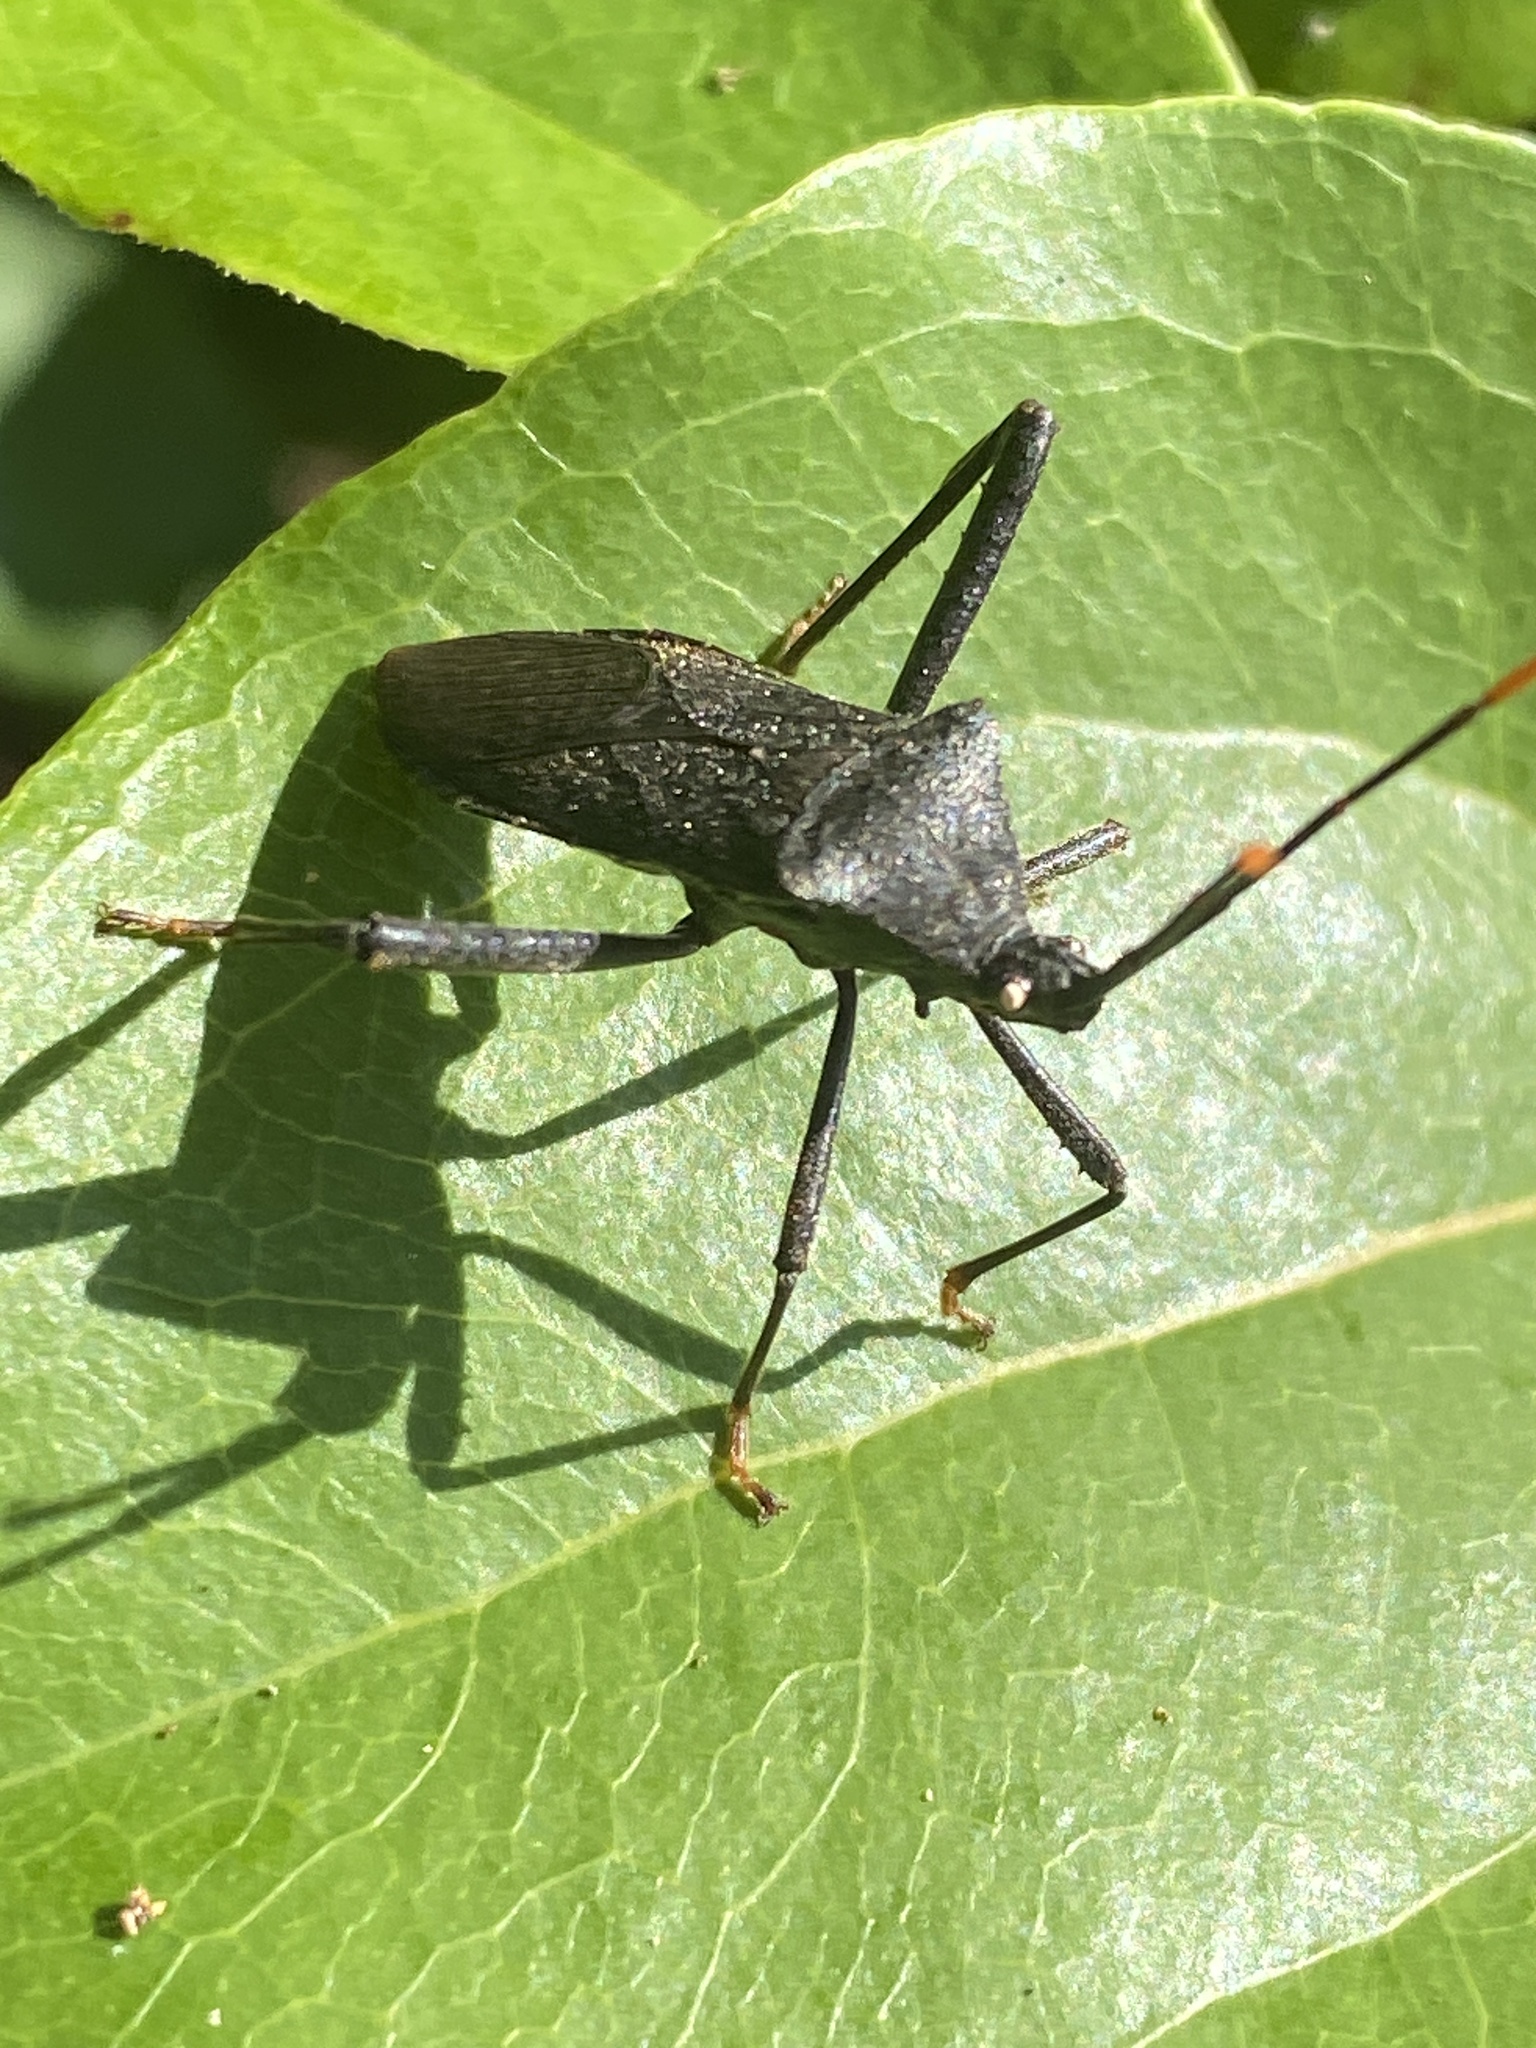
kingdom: Animalia
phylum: Arthropoda
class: Insecta
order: Hemiptera
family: Coreidae
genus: Acanthocephala
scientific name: Acanthocephala terminalis
